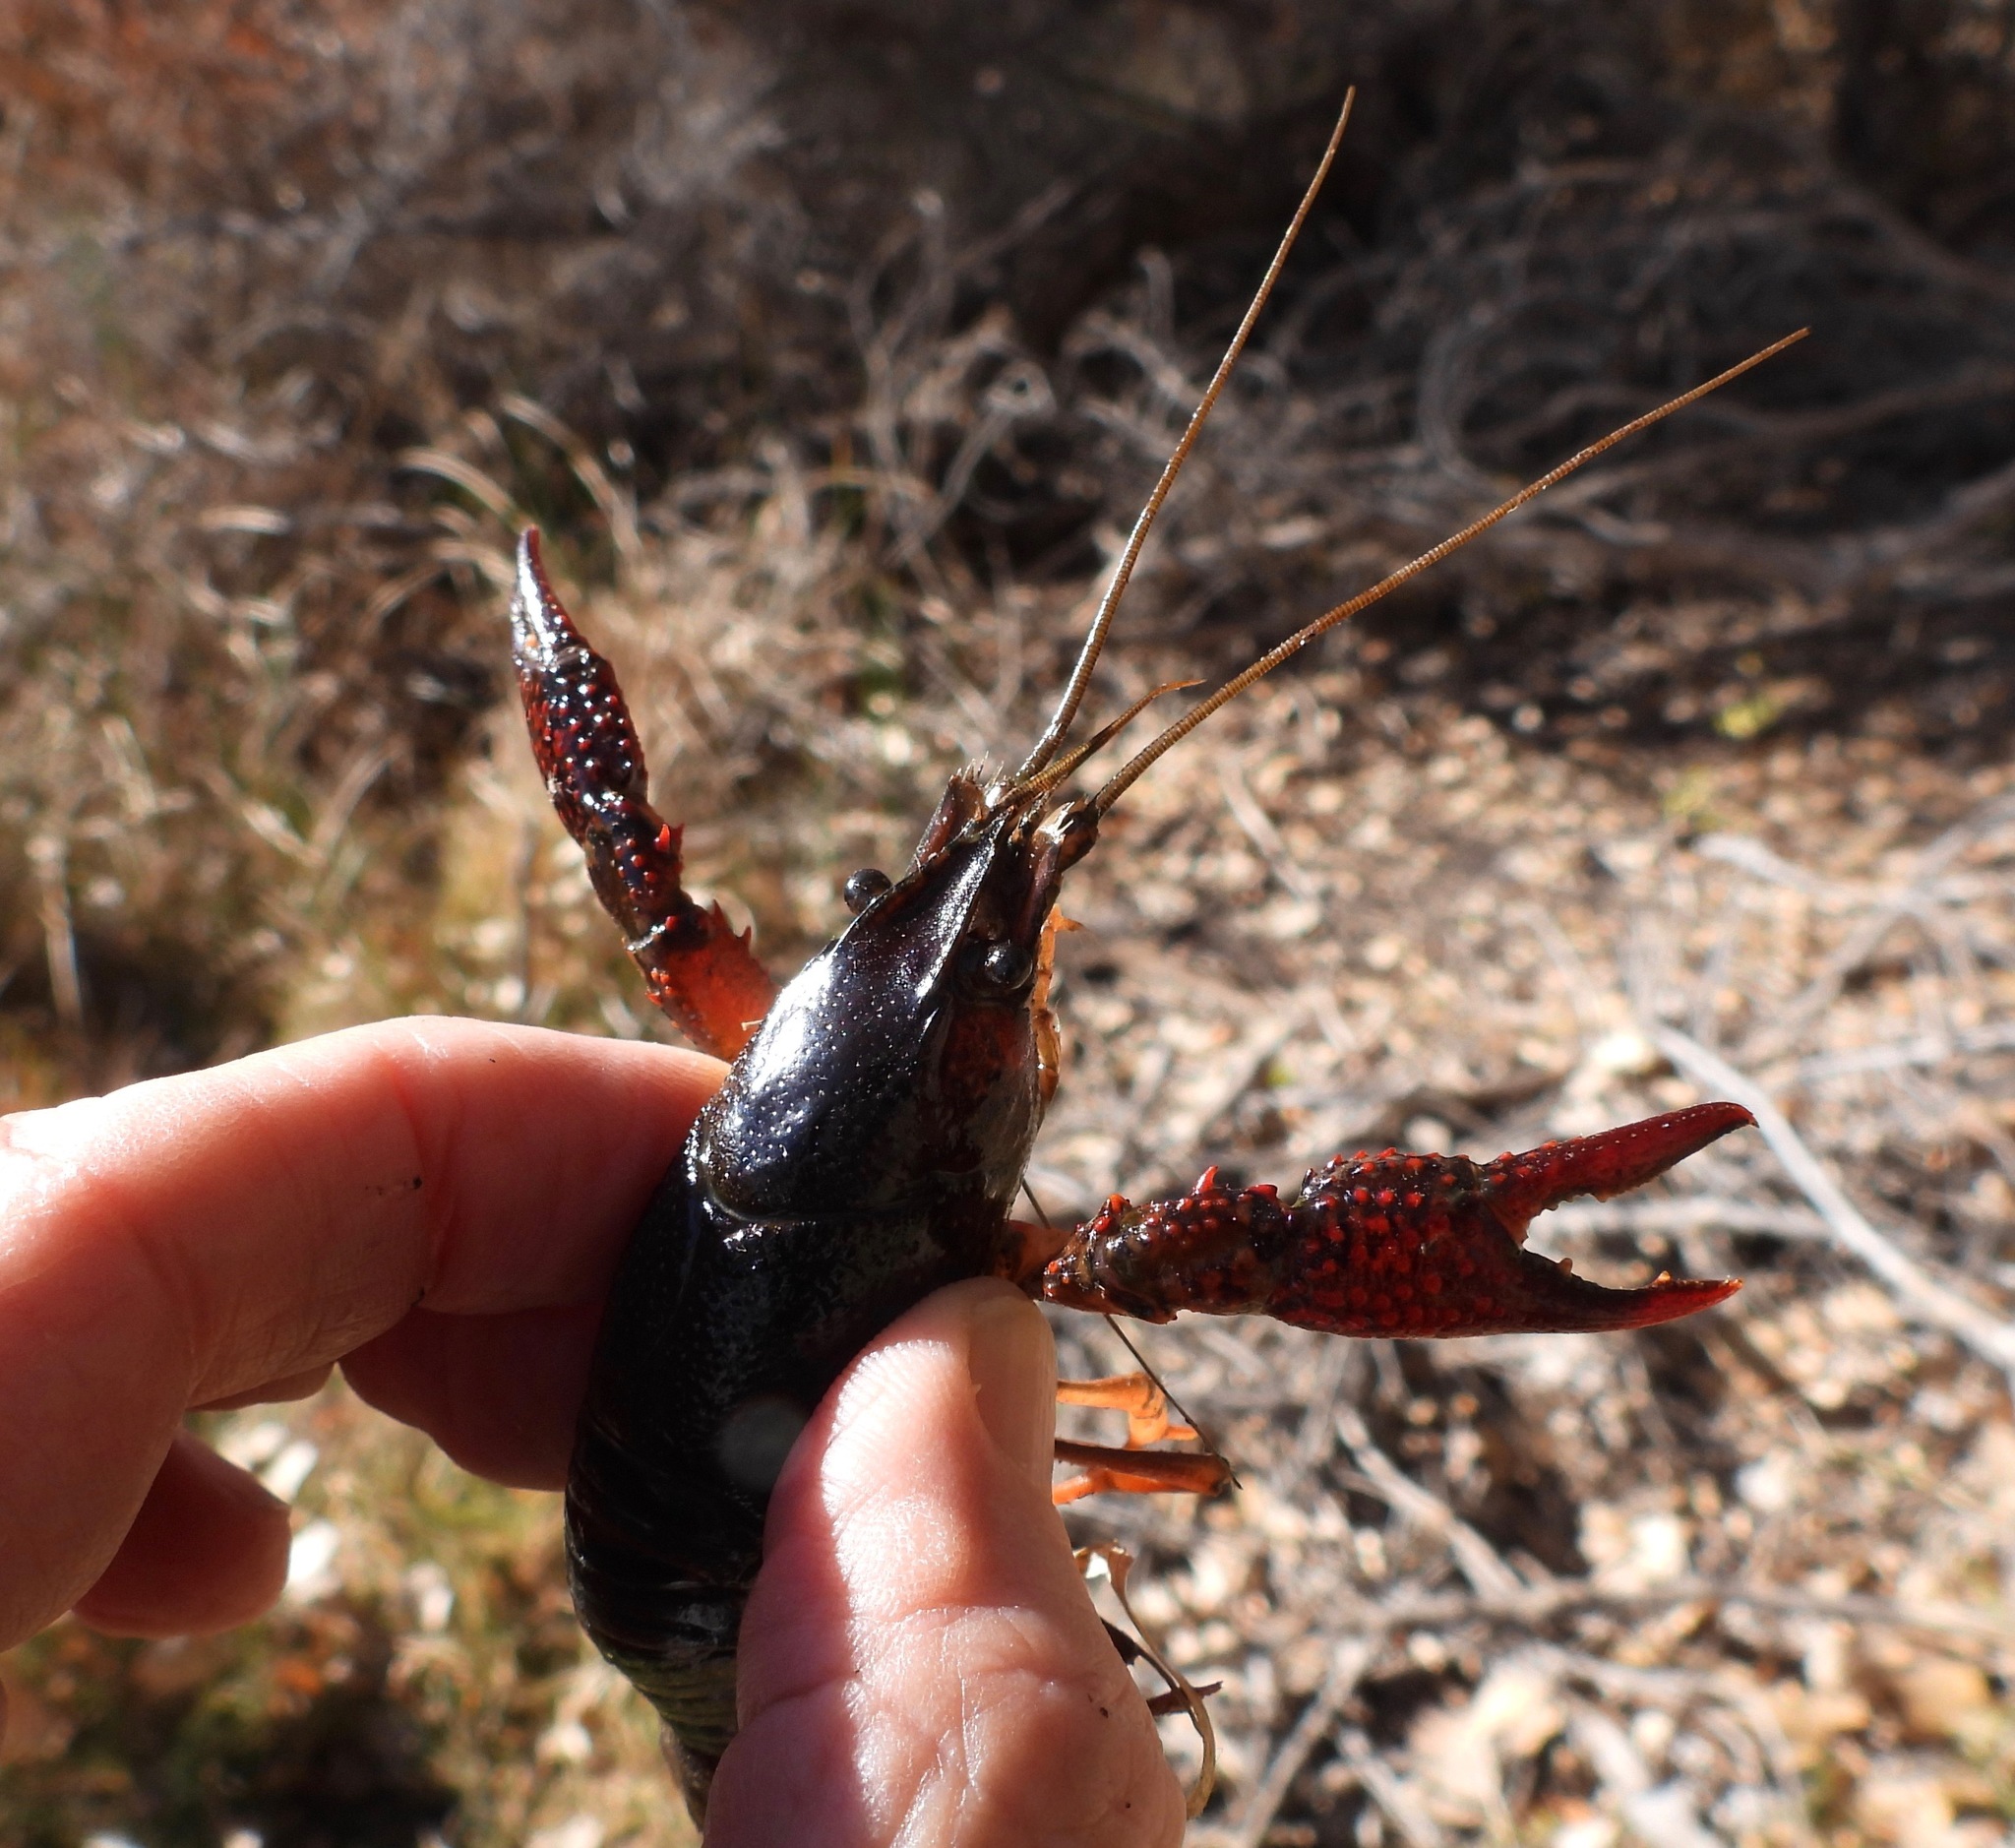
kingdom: Animalia
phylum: Arthropoda
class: Malacostraca
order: Decapoda
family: Cambaridae
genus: Procambarus
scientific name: Procambarus clarkii
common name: Red swamp crayfish
